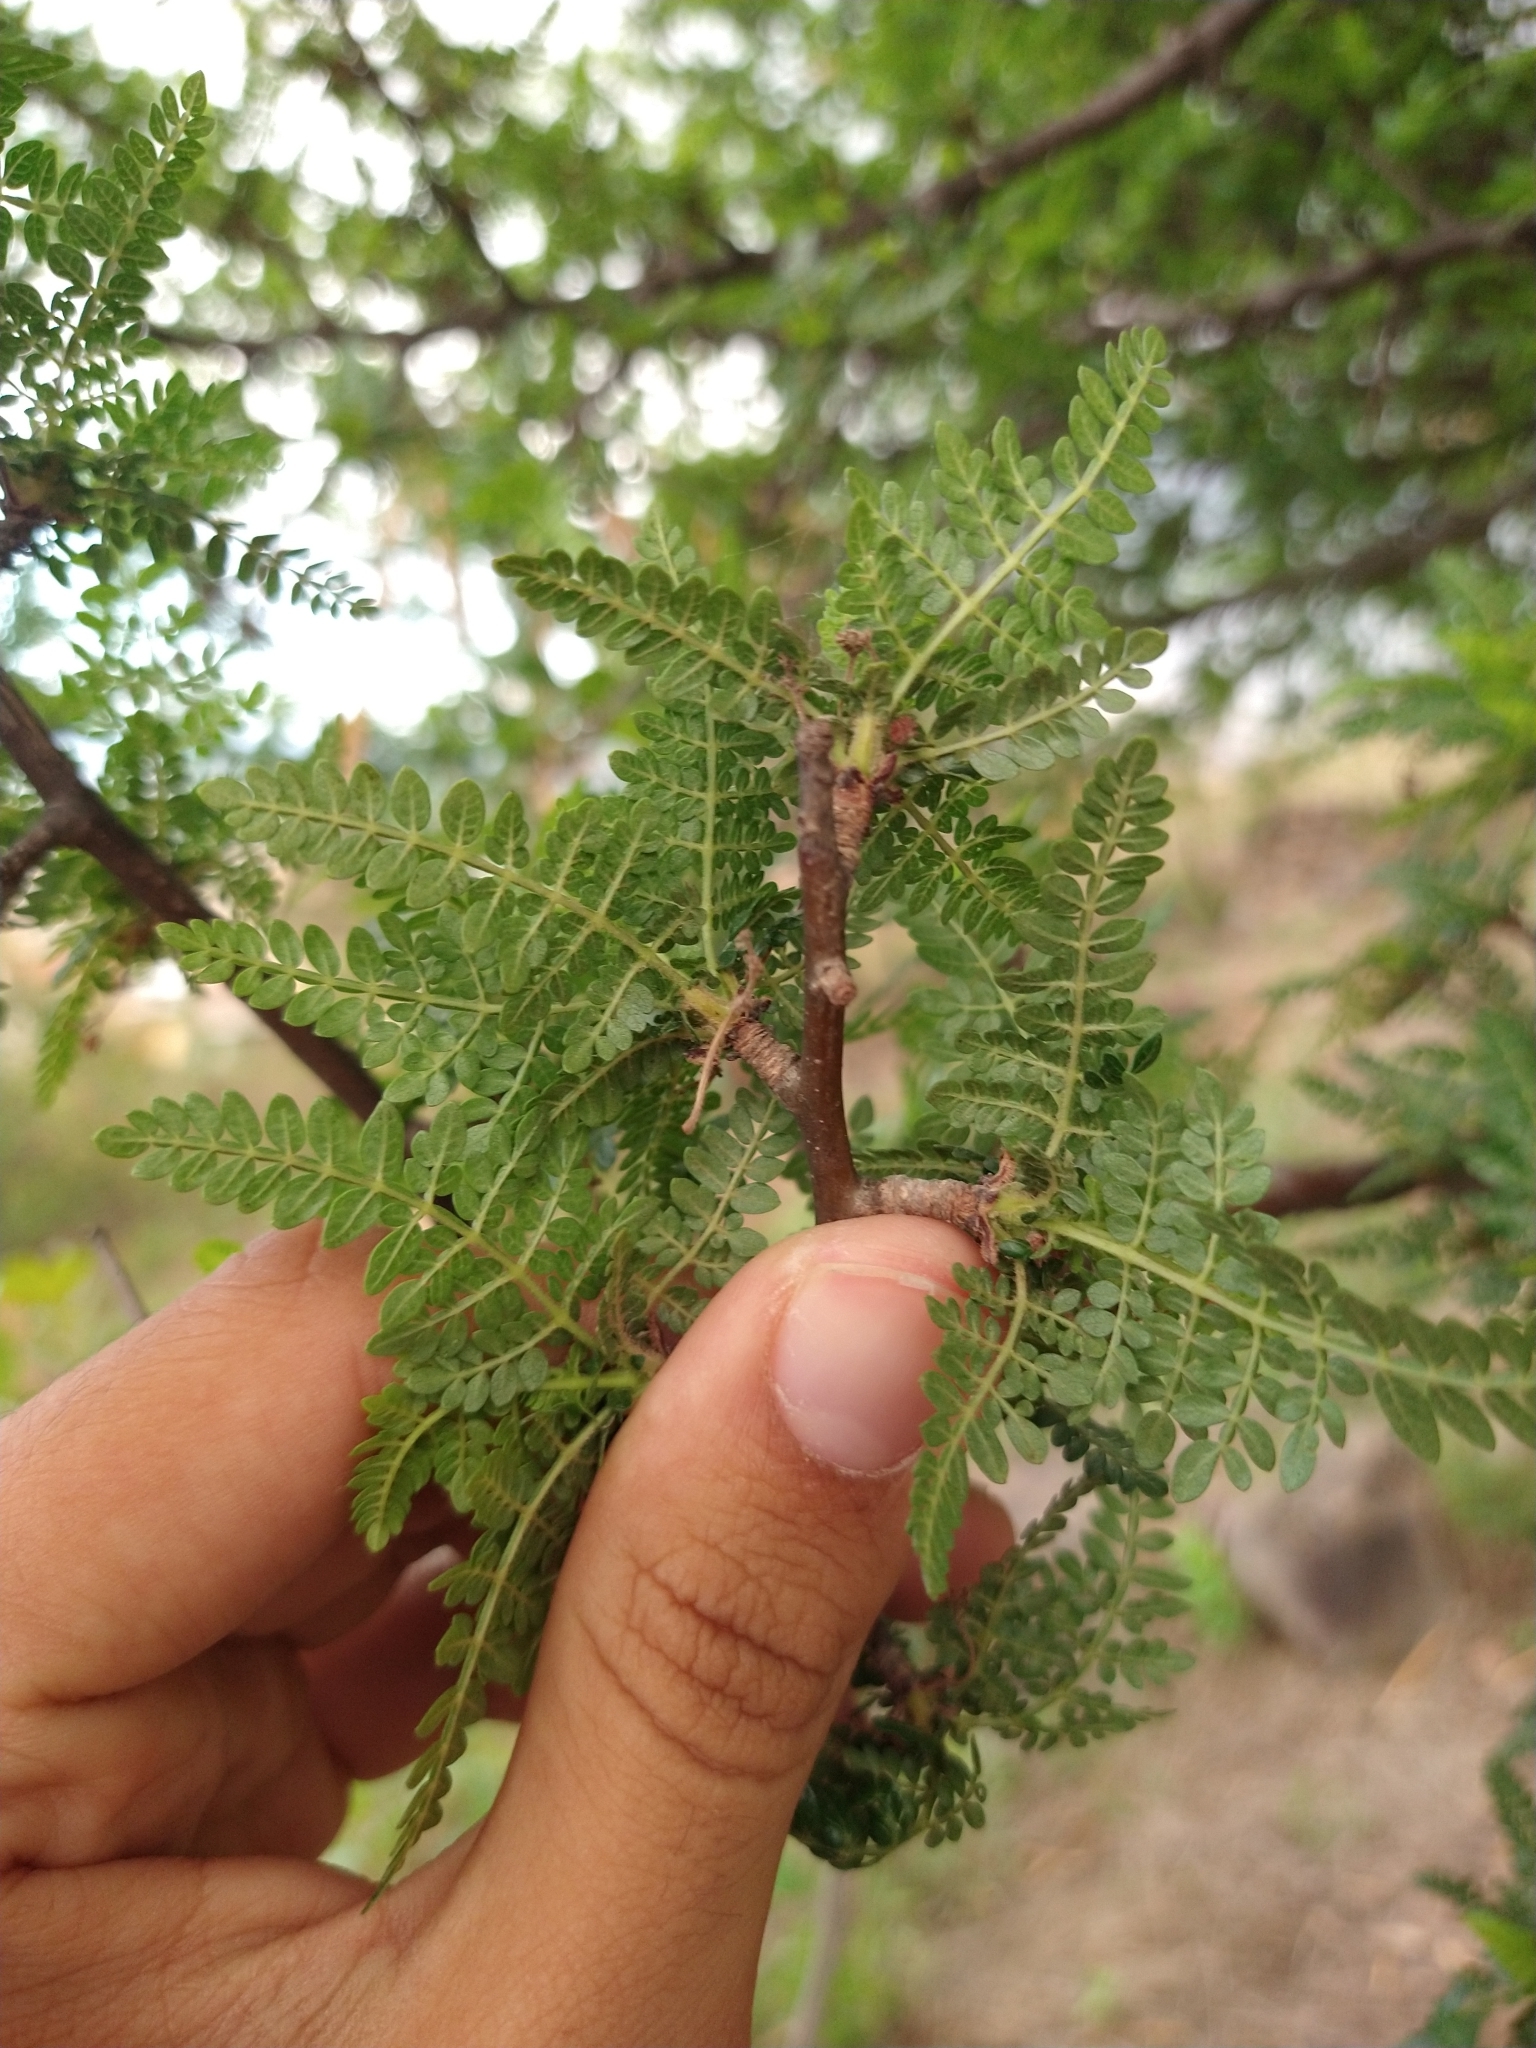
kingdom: Plantae
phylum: Tracheophyta
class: Magnoliopsida
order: Sapindales
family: Burseraceae
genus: Bursera
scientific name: Bursera bipinnata
